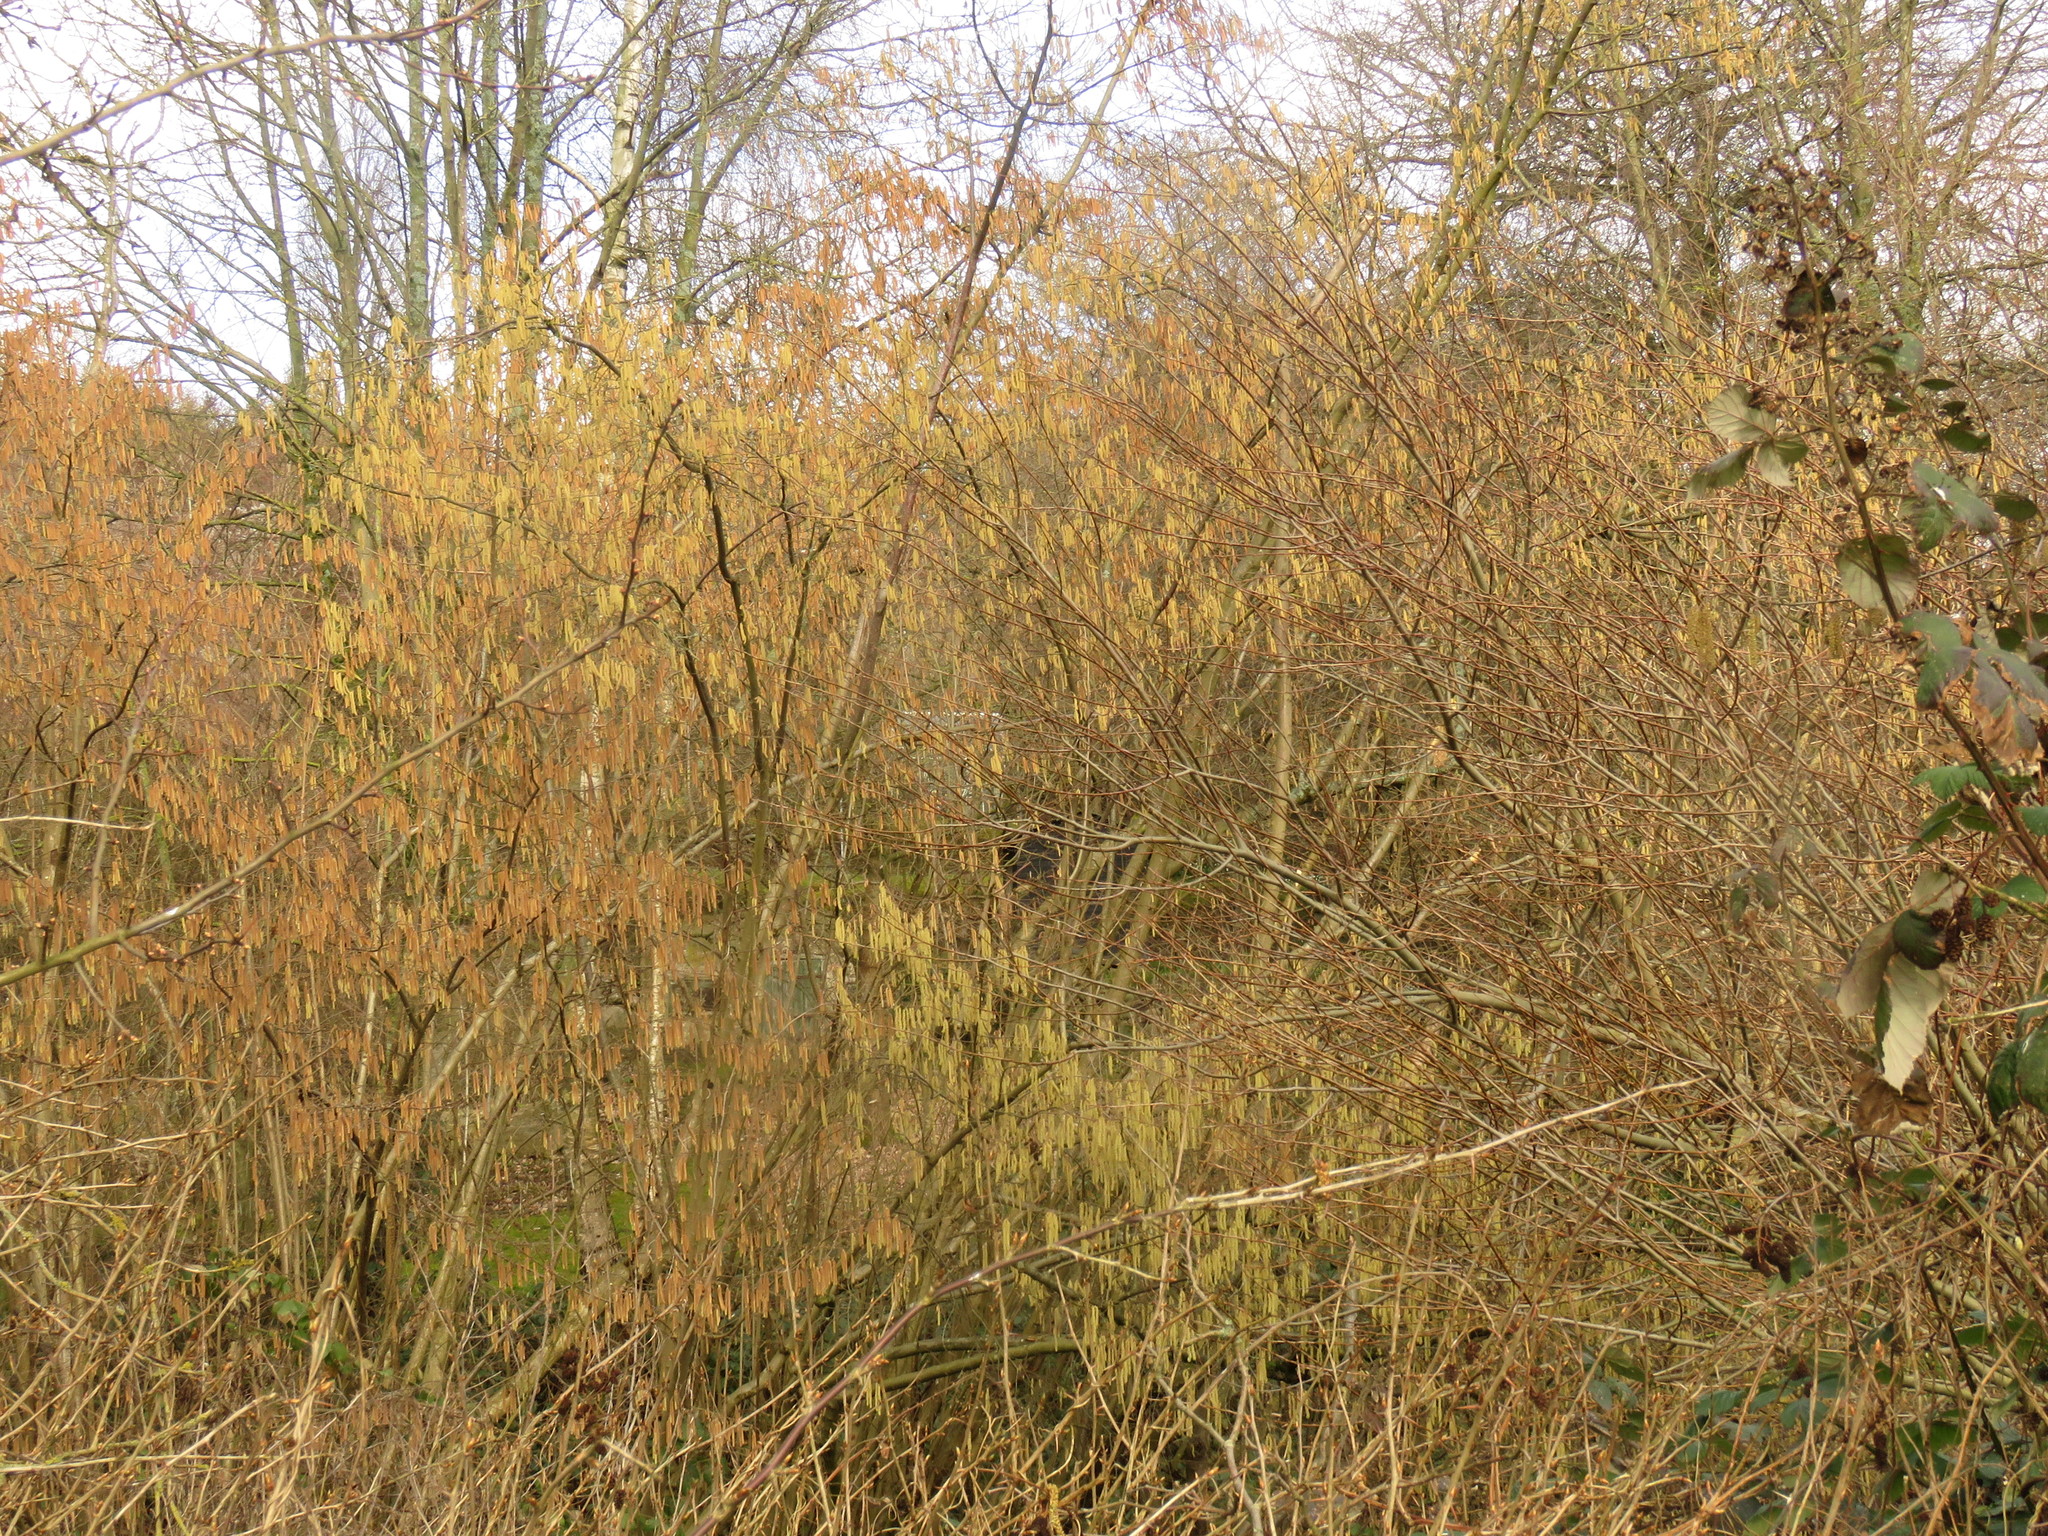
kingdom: Plantae
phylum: Tracheophyta
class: Magnoliopsida
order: Fagales
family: Betulaceae
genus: Corylus
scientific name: Corylus avellana
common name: European hazel
